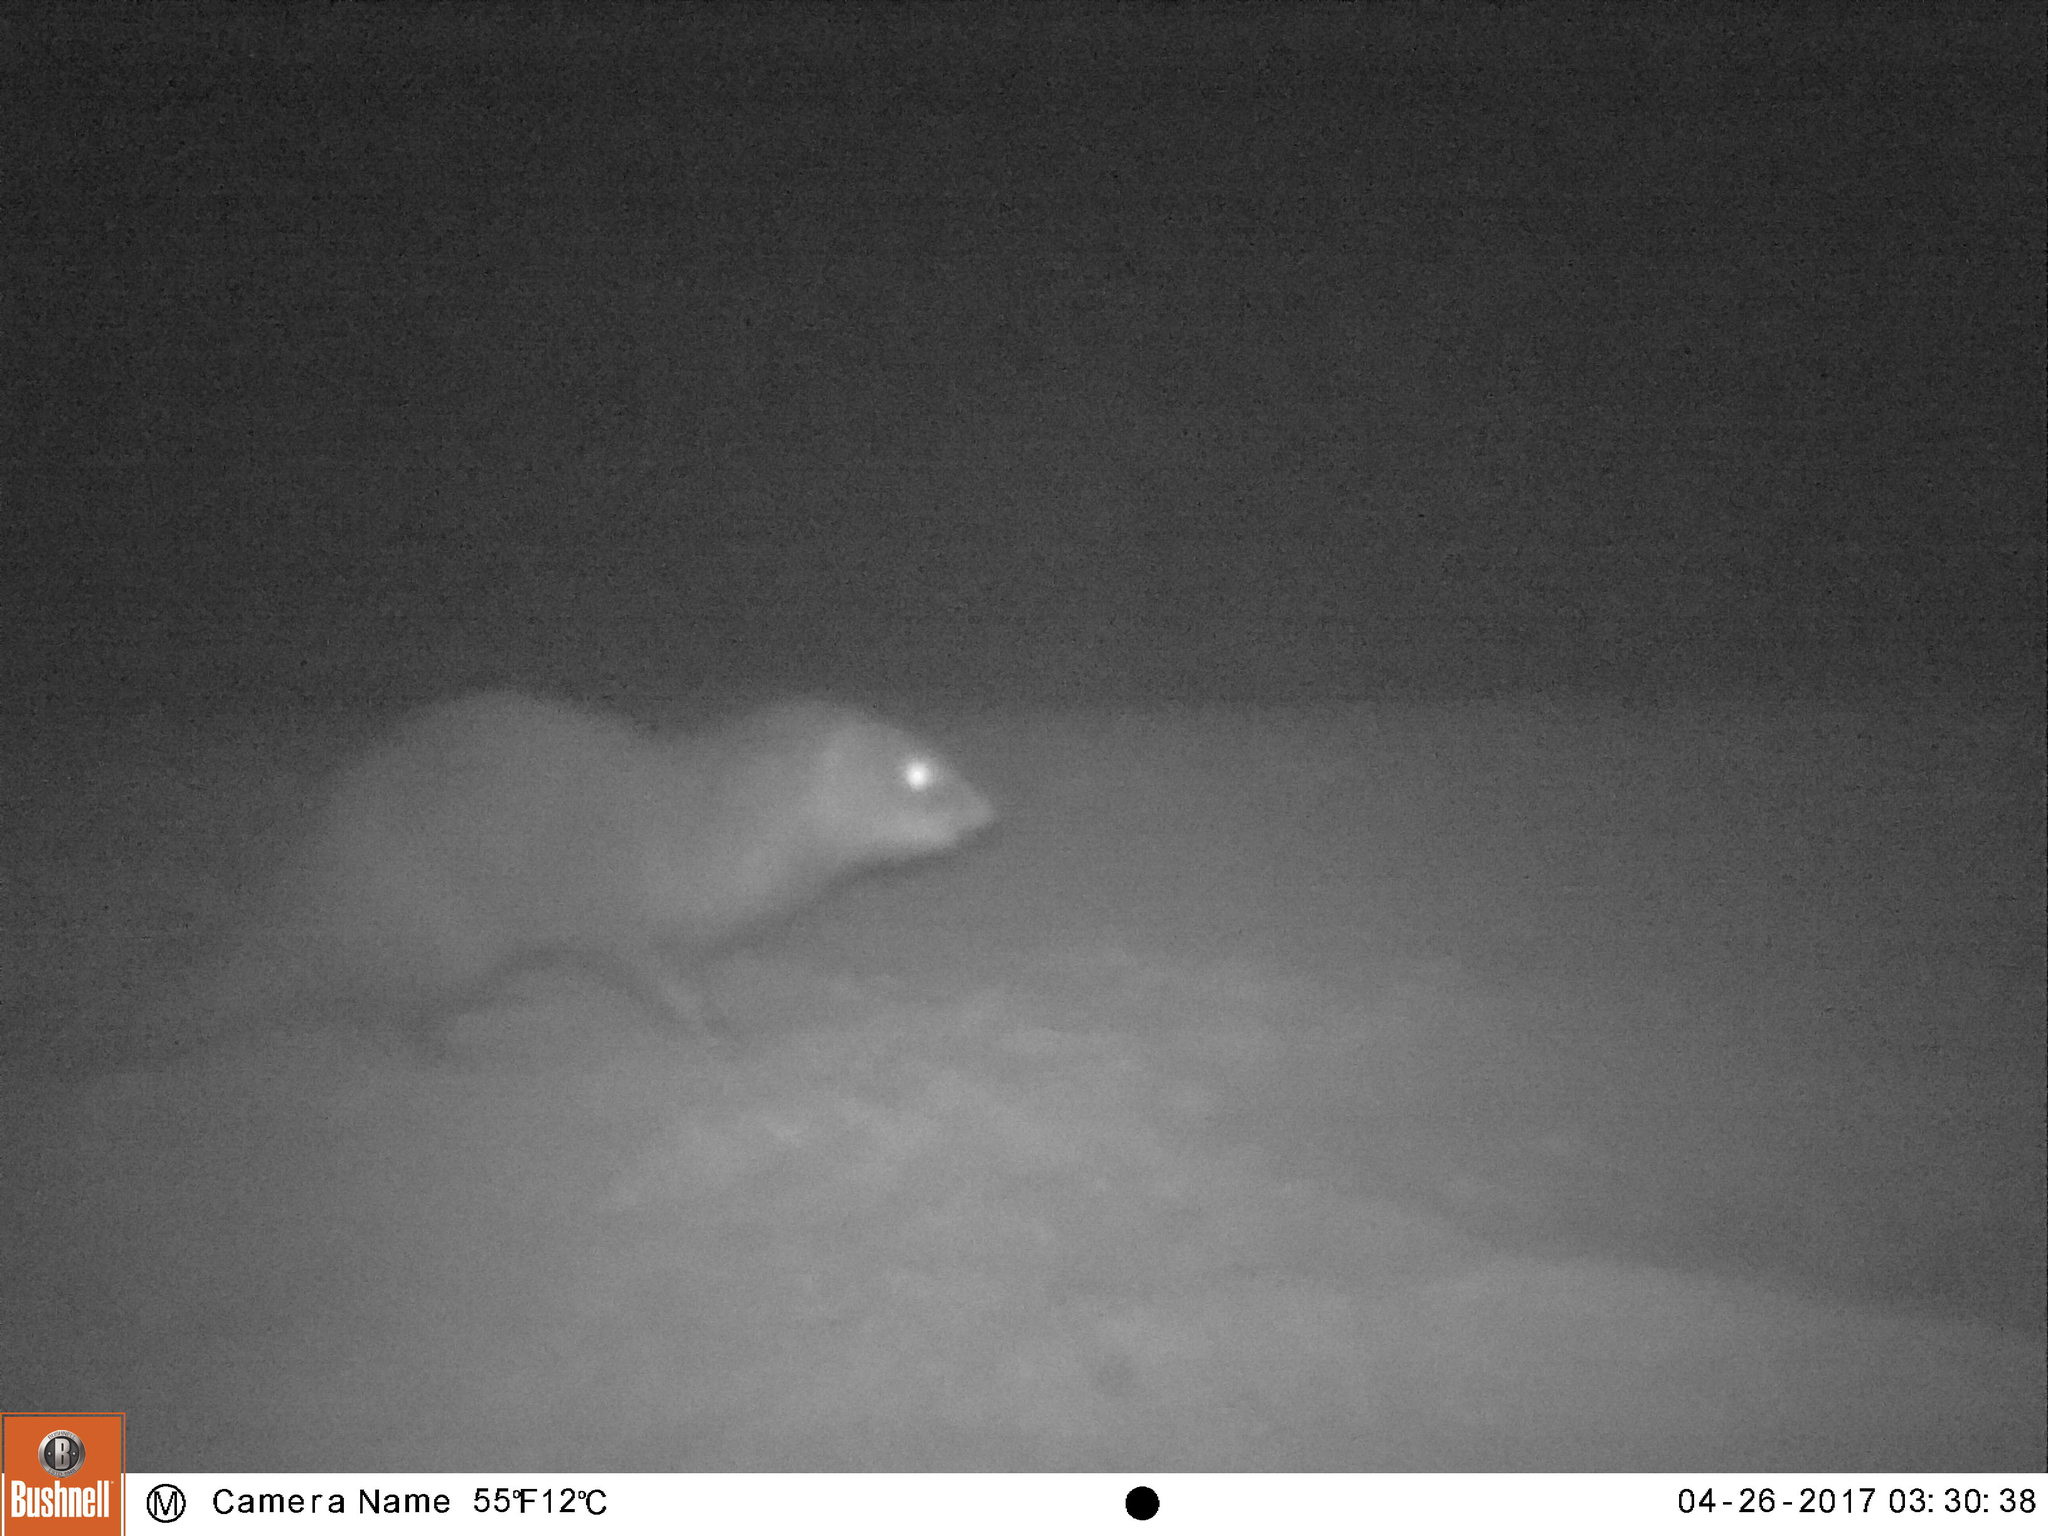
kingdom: Animalia
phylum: Chordata
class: Mammalia
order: Carnivora
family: Herpestidae
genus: Atilax
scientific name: Atilax paludinosus
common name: Marsh mongoose
